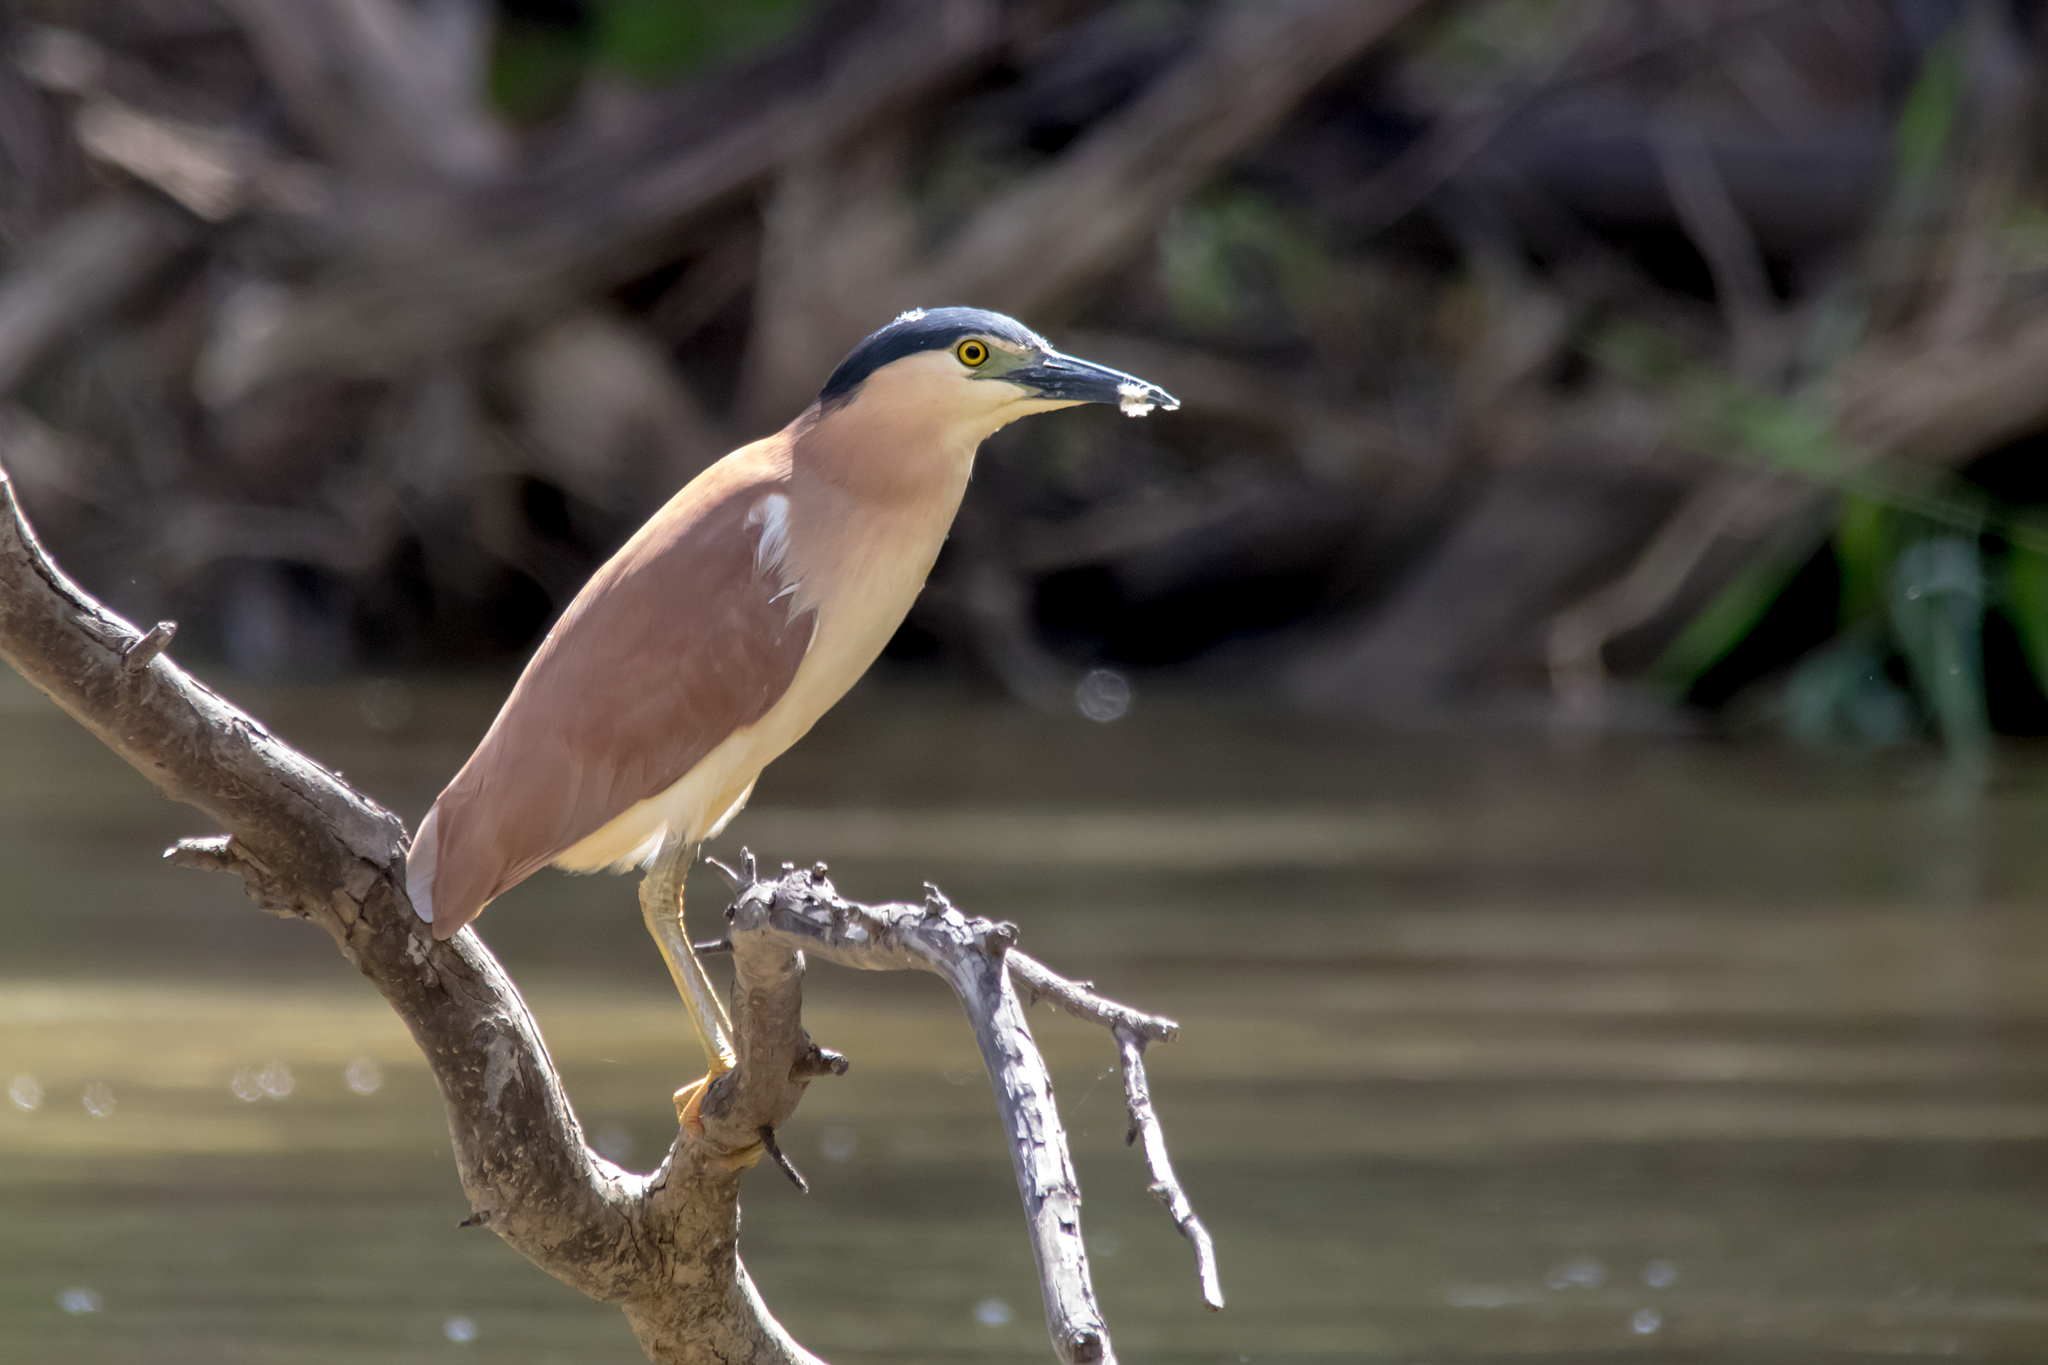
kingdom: Animalia
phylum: Chordata
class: Aves
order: Pelecaniformes
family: Ardeidae
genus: Nycticorax
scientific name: Nycticorax caledonicus
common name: Rufous night-heron
